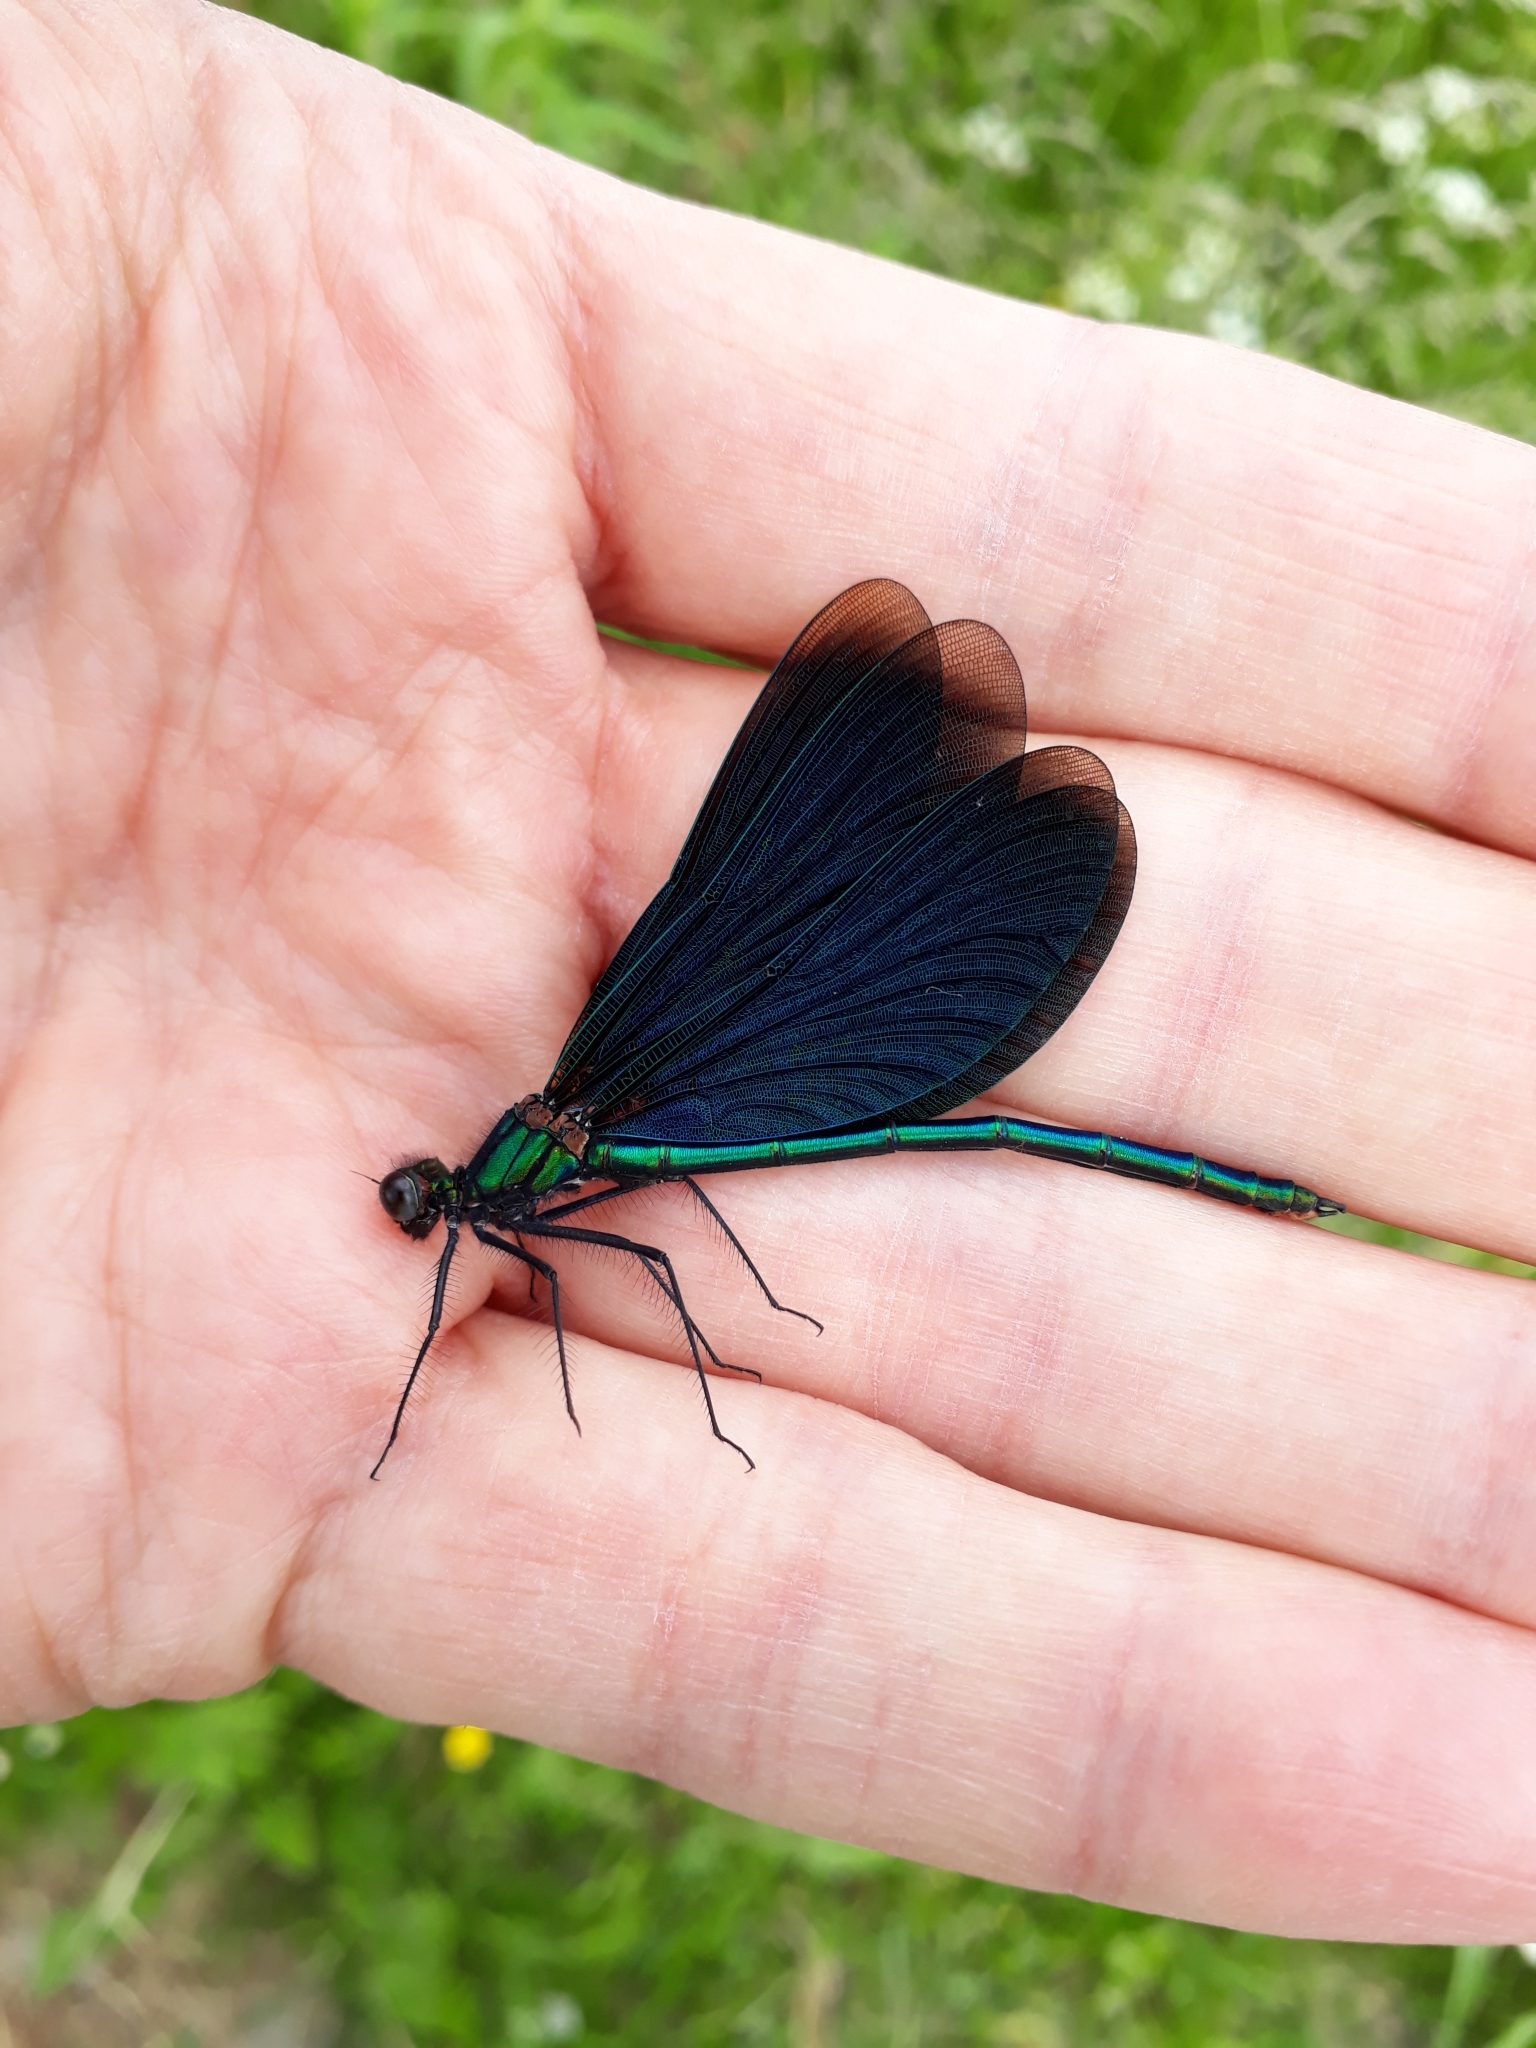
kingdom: Animalia
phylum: Arthropoda
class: Insecta
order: Odonata
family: Calopterygidae
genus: Calopteryx
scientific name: Calopteryx virgo
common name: Beautiful demoiselle
